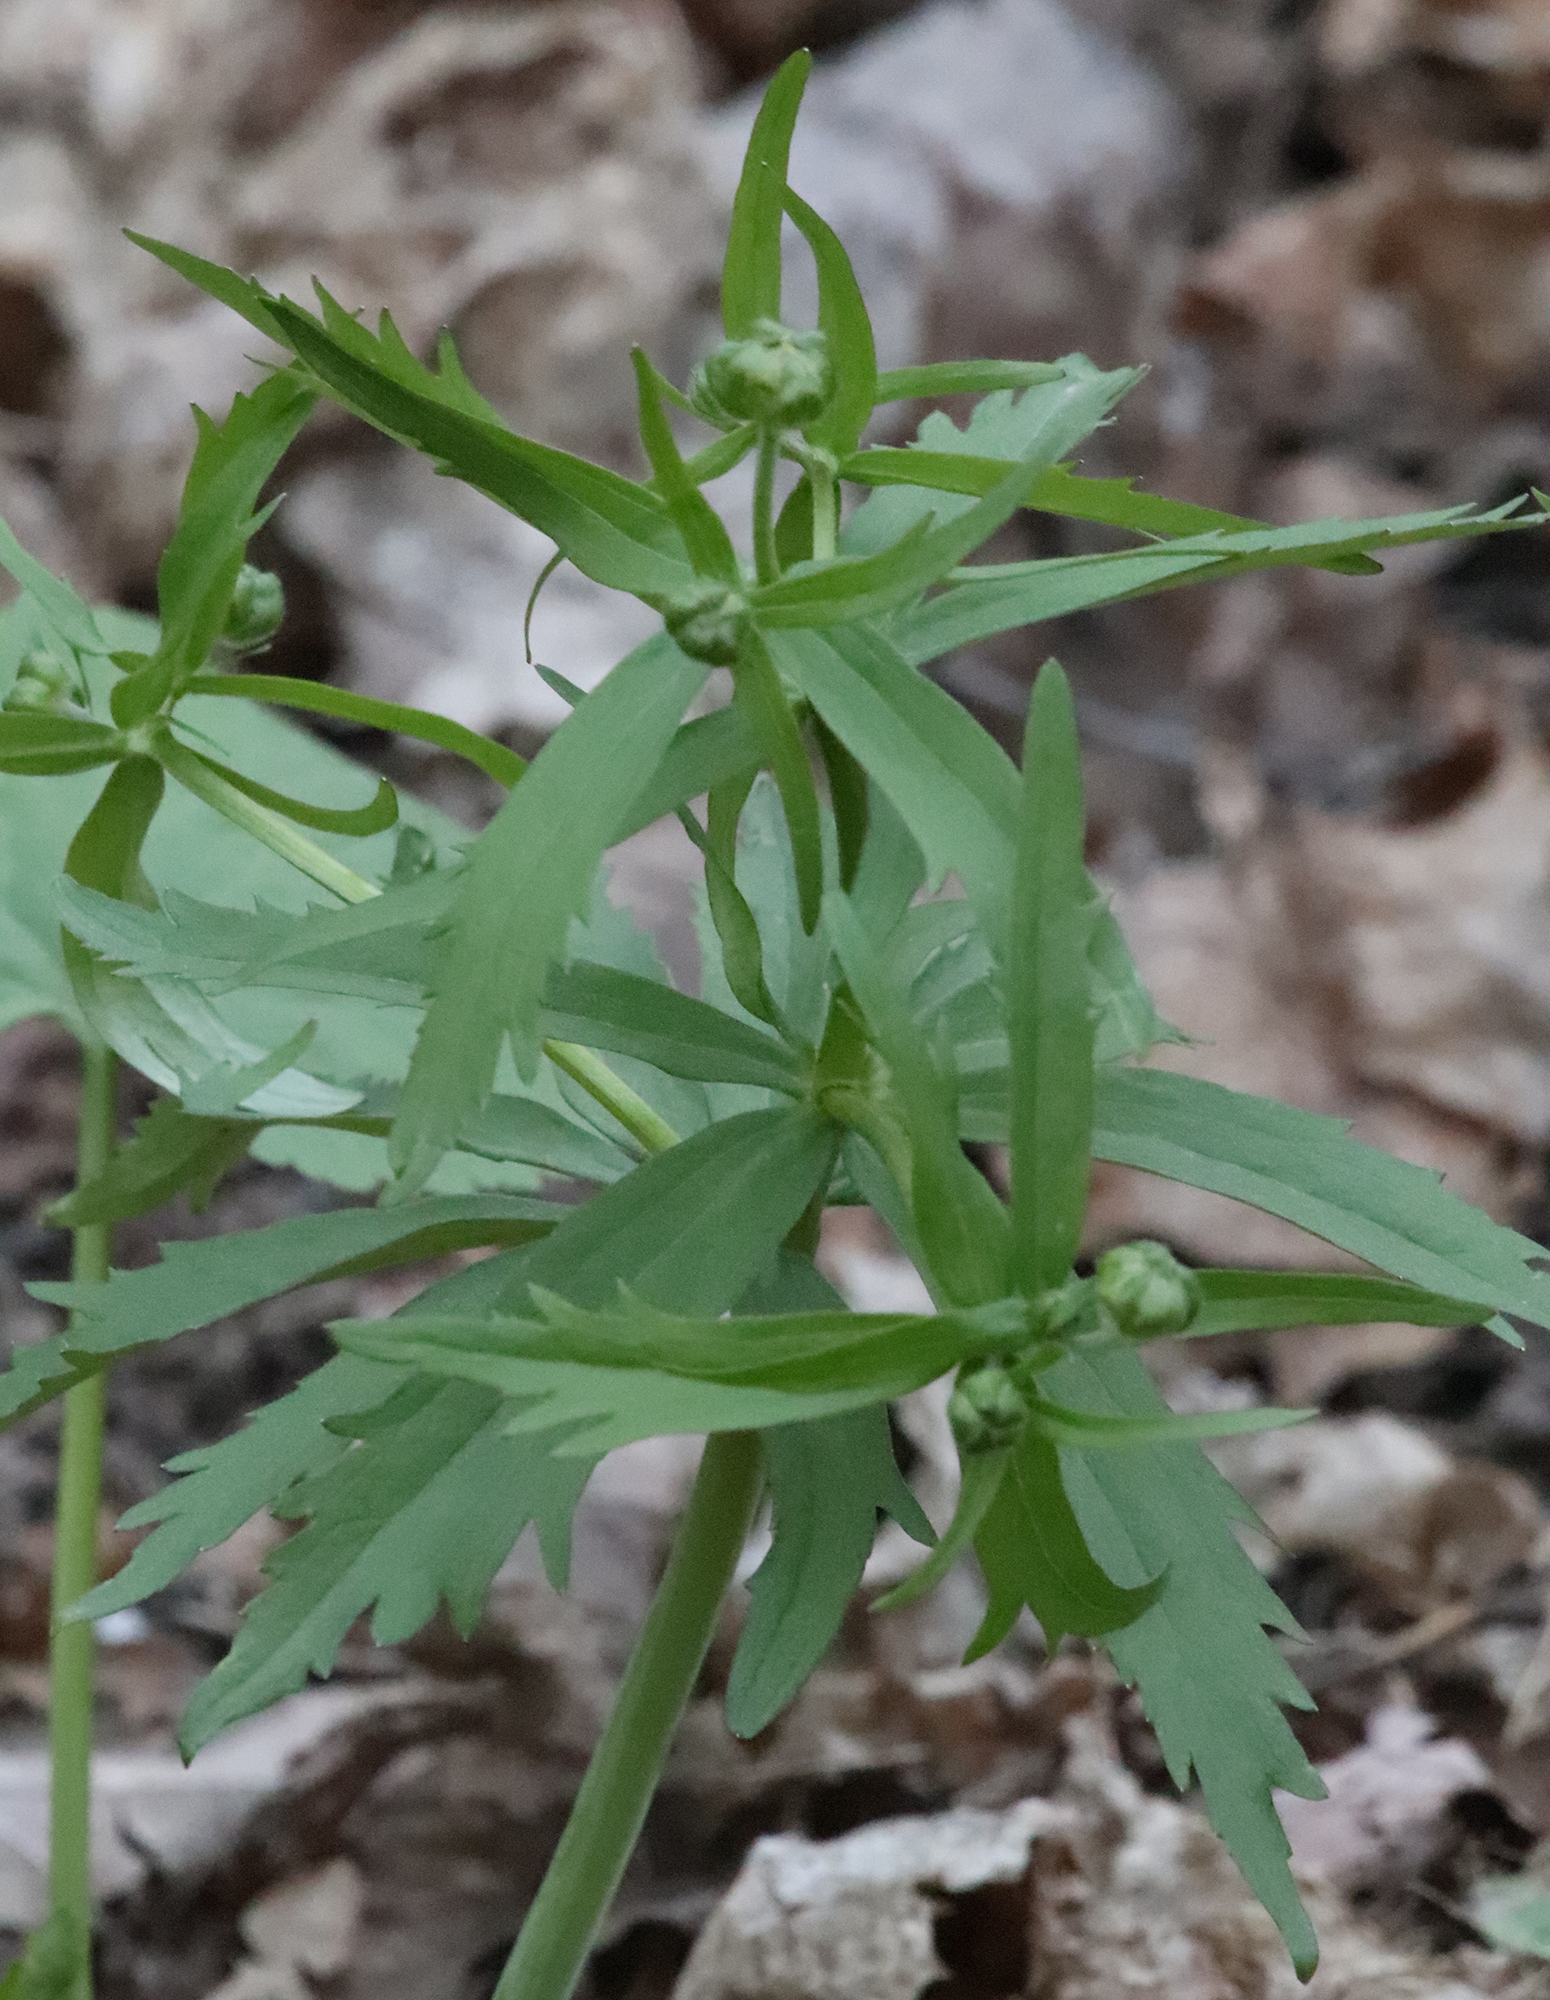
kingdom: Plantae
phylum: Tracheophyta
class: Magnoliopsida
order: Ranunculales
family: Ranunculaceae
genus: Ranunculus
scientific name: Ranunculus cassubicus
